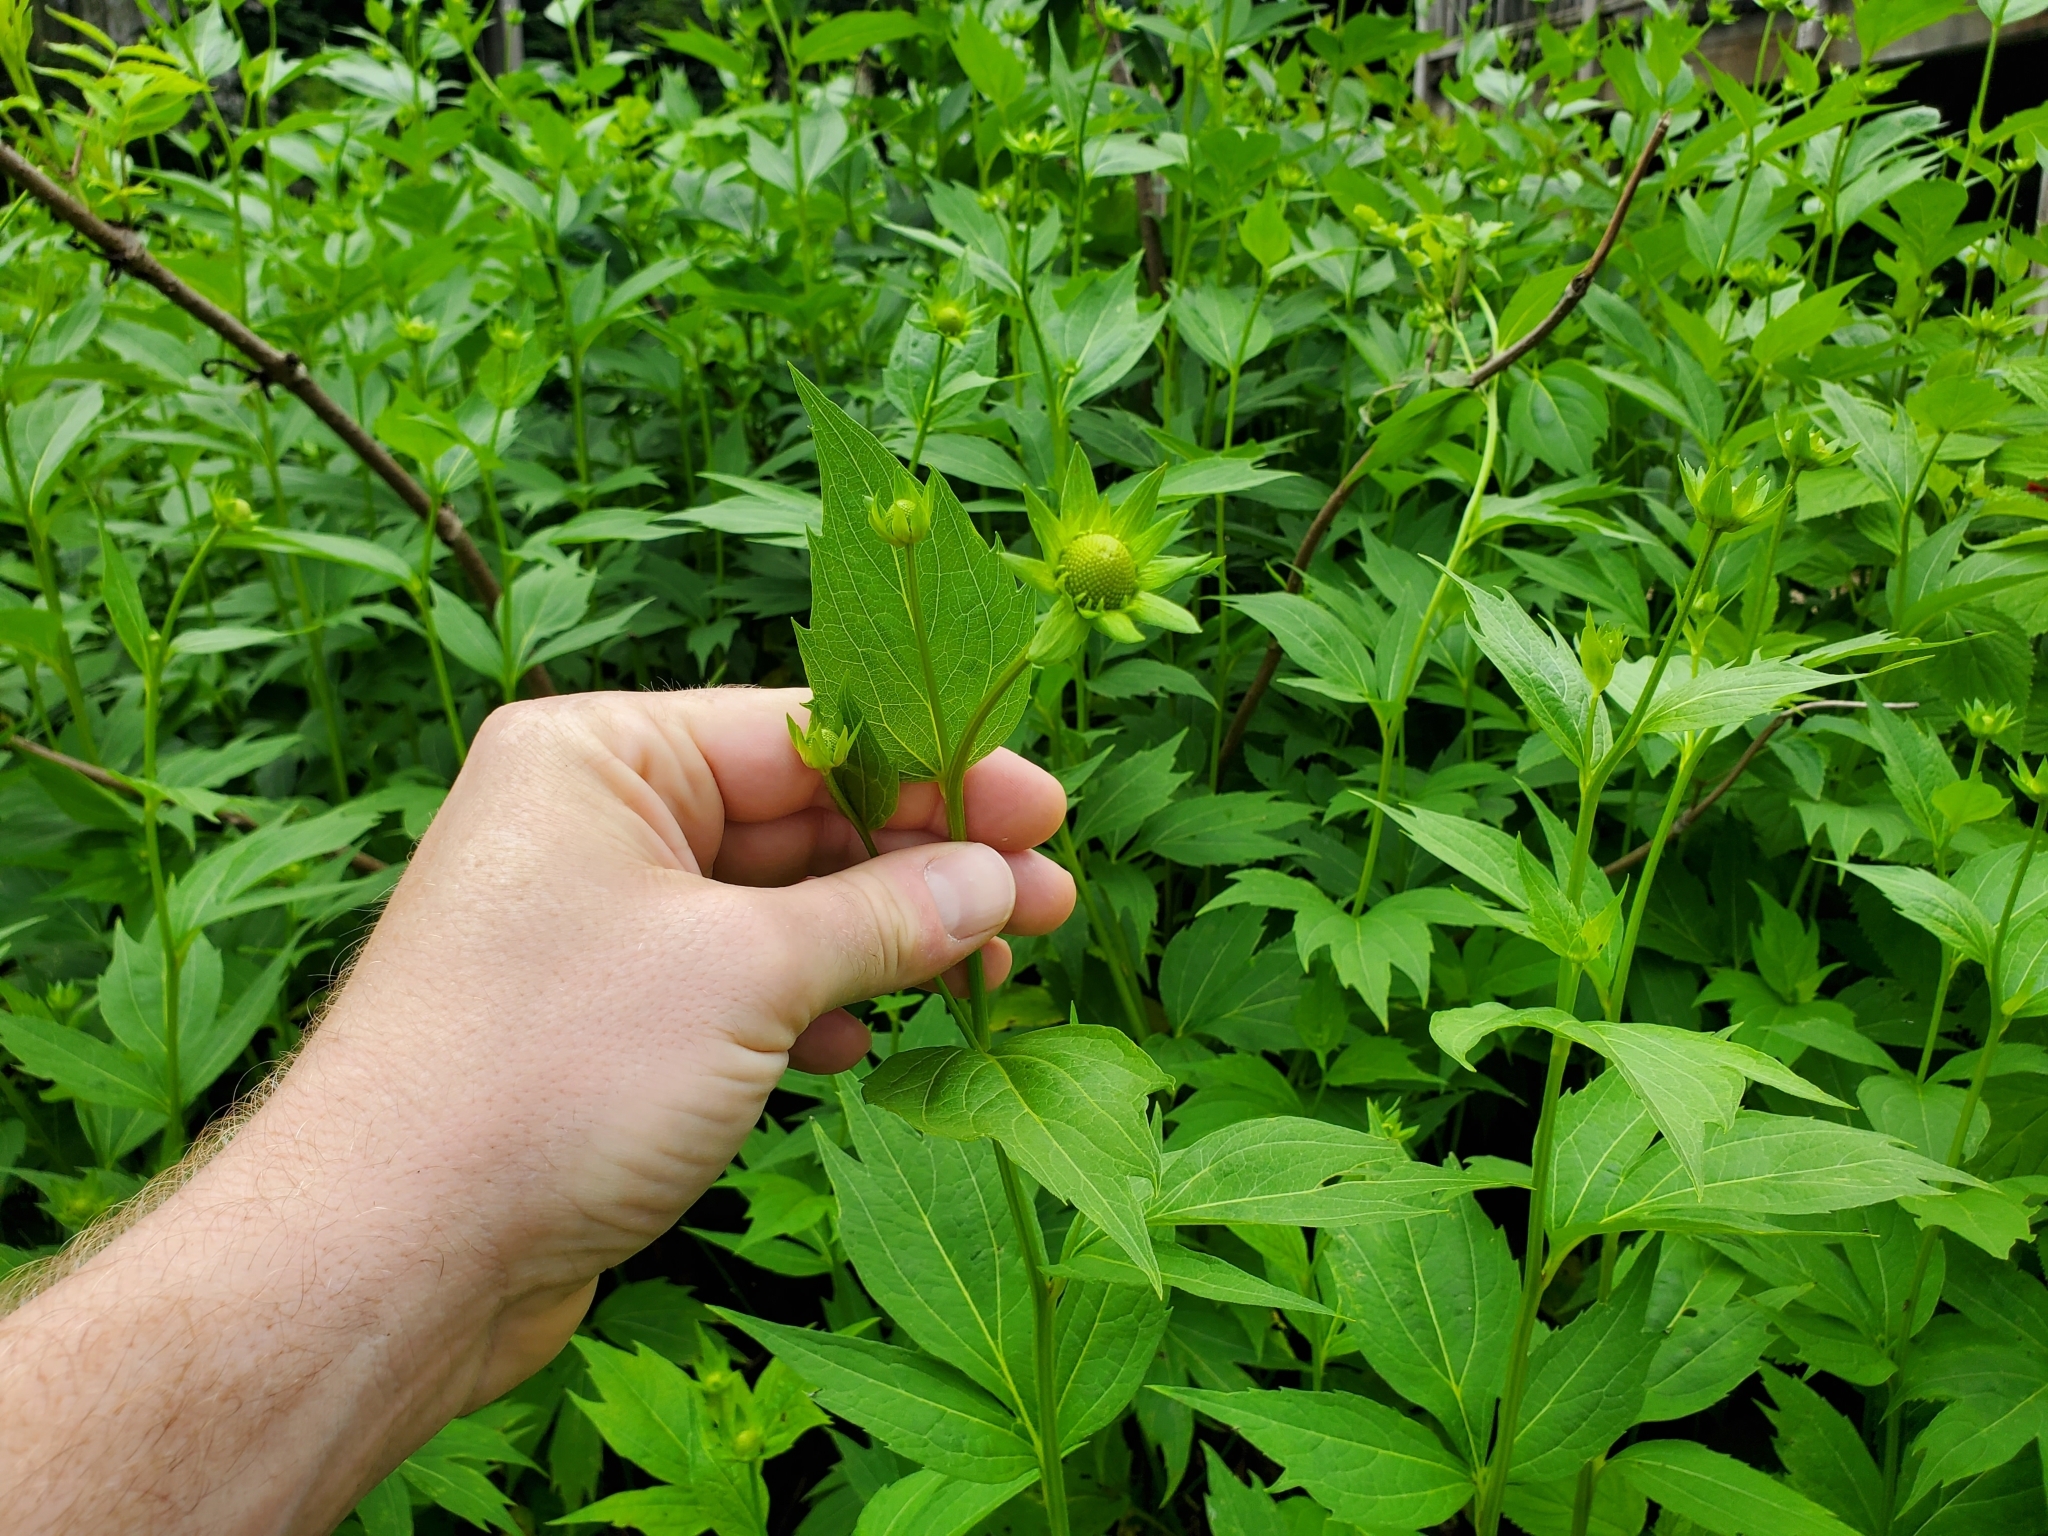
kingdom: Plantae
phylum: Tracheophyta
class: Magnoliopsida
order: Asterales
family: Asteraceae
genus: Rudbeckia
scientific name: Rudbeckia laciniata
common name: Coneflower
